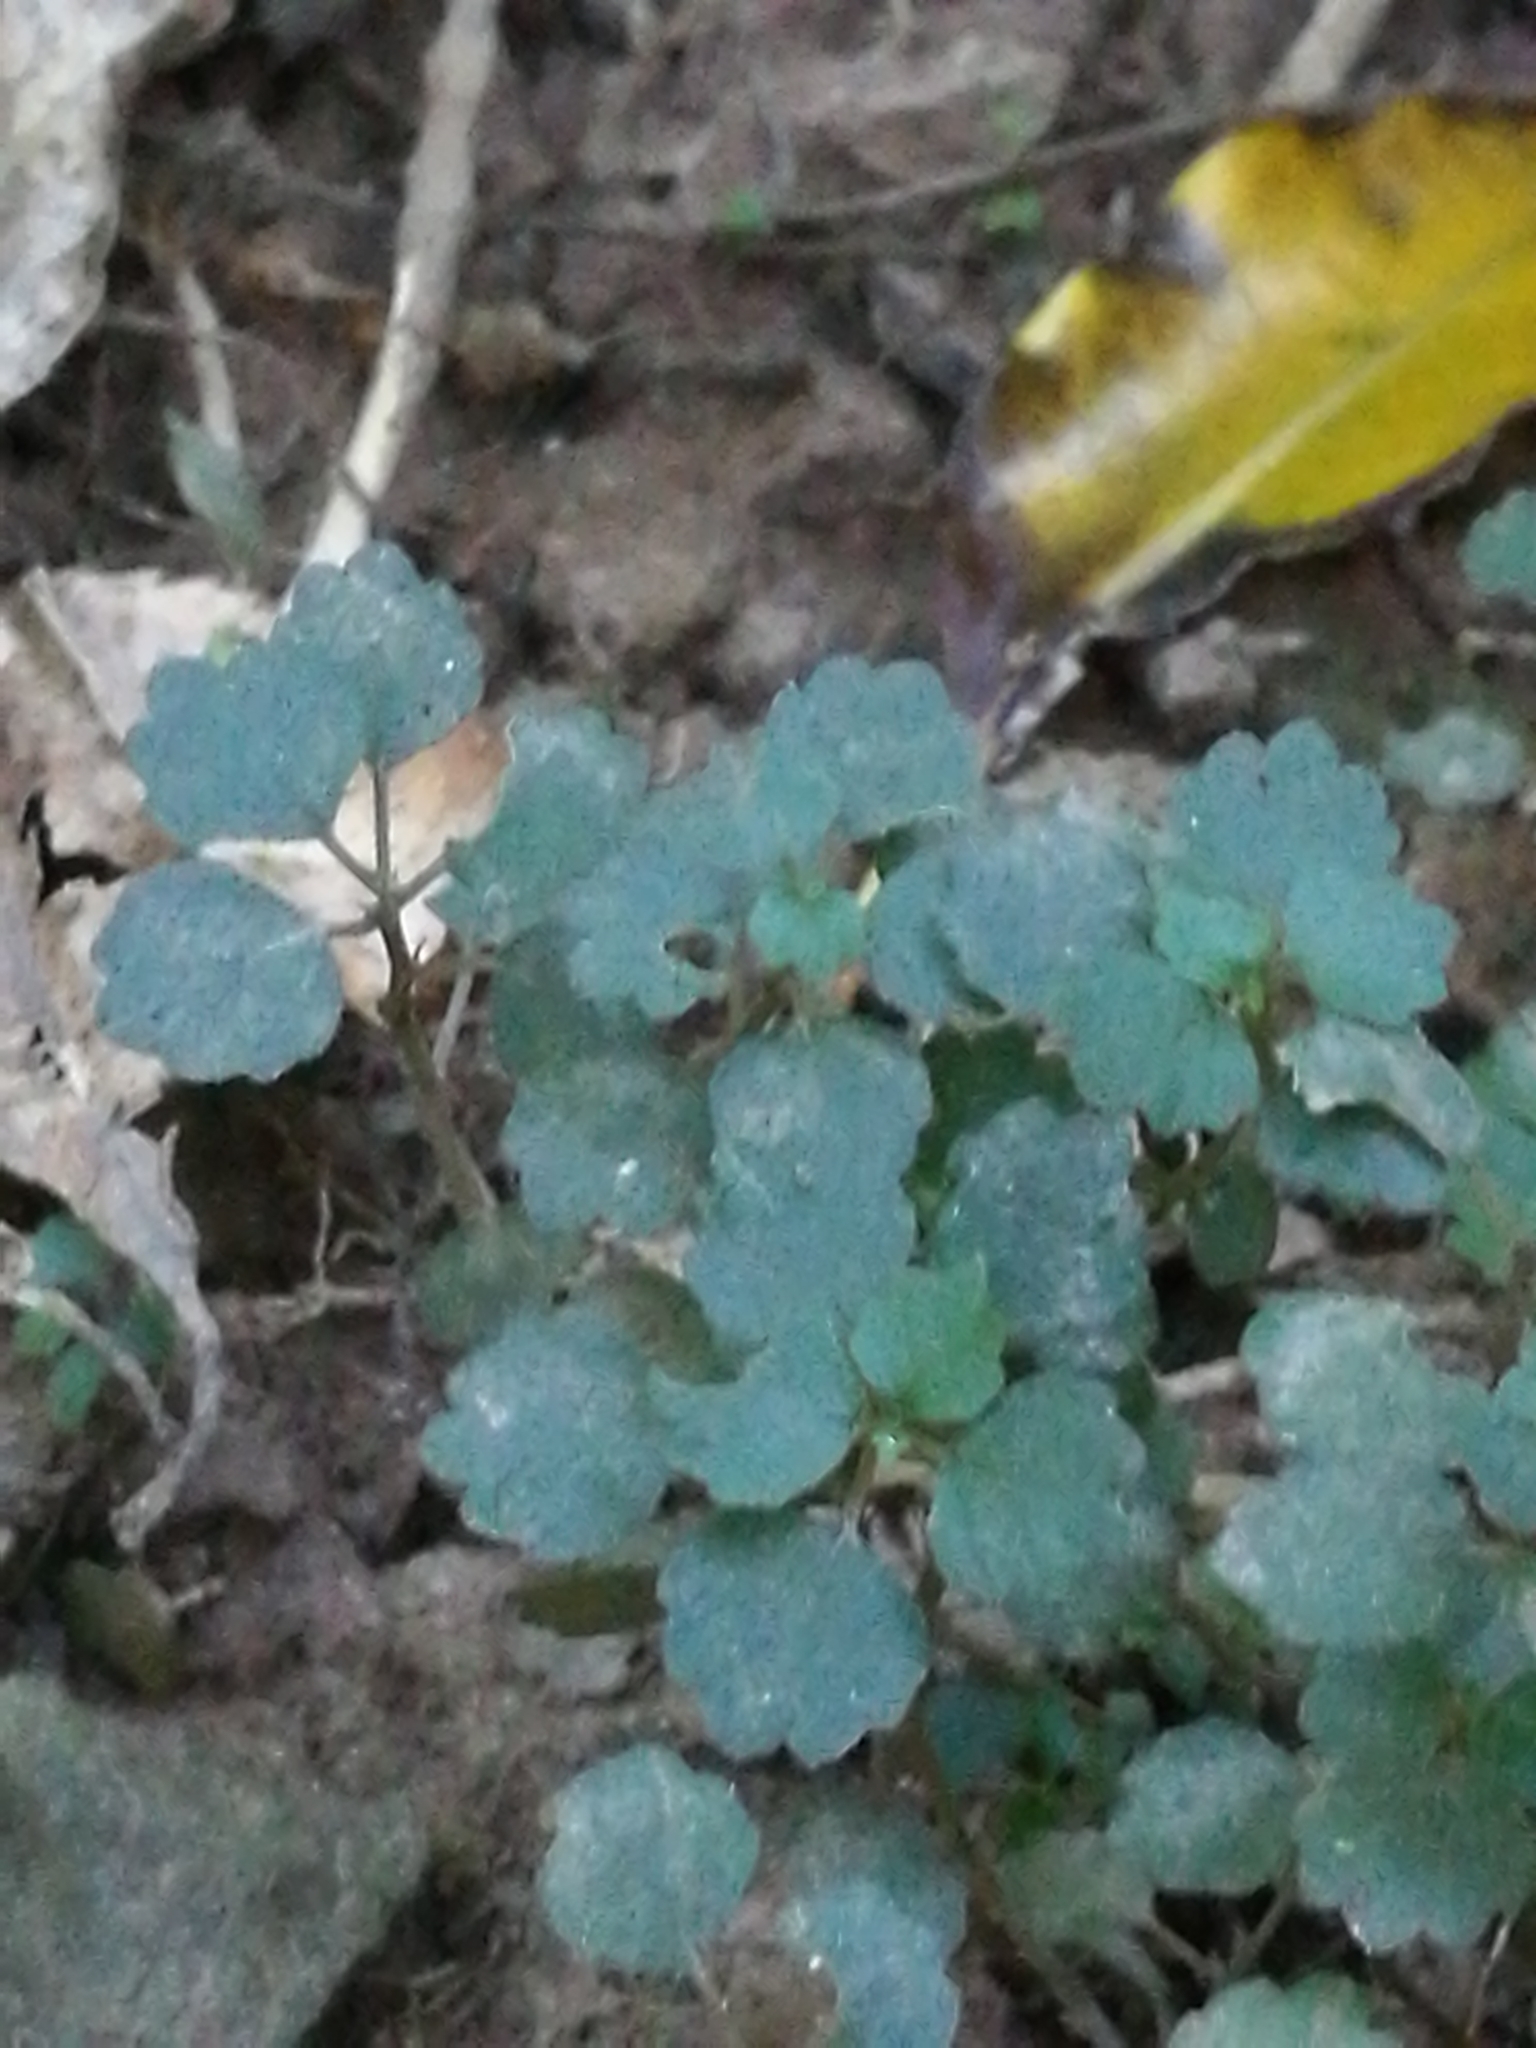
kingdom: Plantae
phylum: Tracheophyta
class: Magnoliopsida
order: Apiales
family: Apiaceae
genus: Azorella
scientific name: Azorella hookeri
